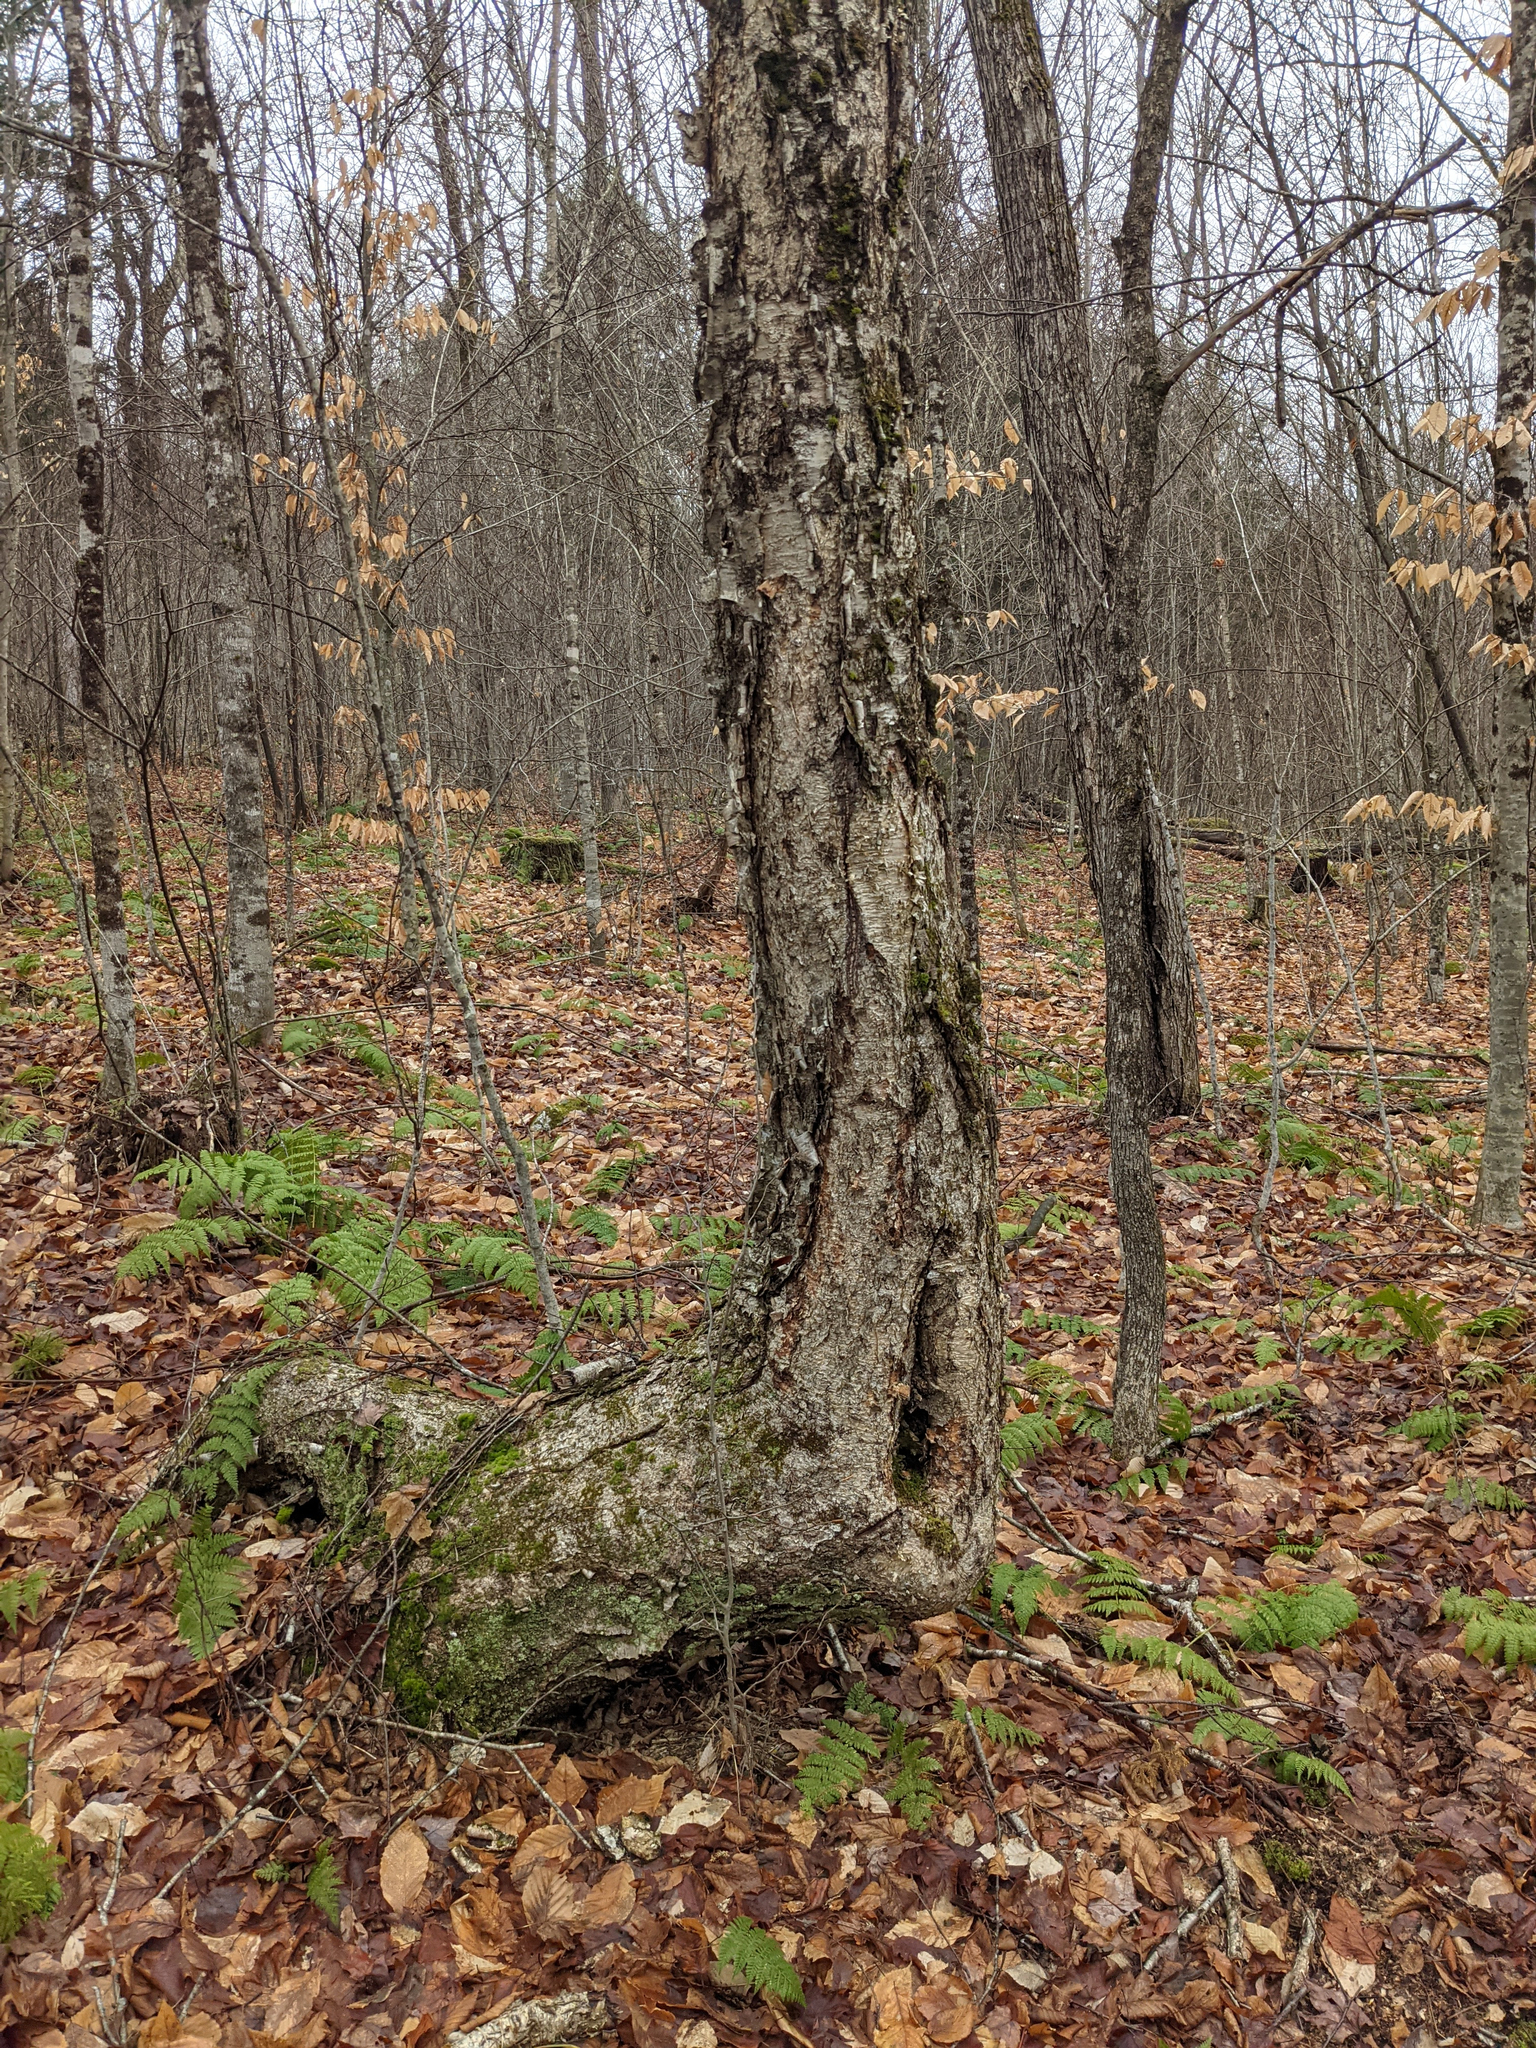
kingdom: Plantae
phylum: Tracheophyta
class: Magnoliopsida
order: Fagales
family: Betulaceae
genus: Betula
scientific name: Betula alleghaniensis
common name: Yellow birch
